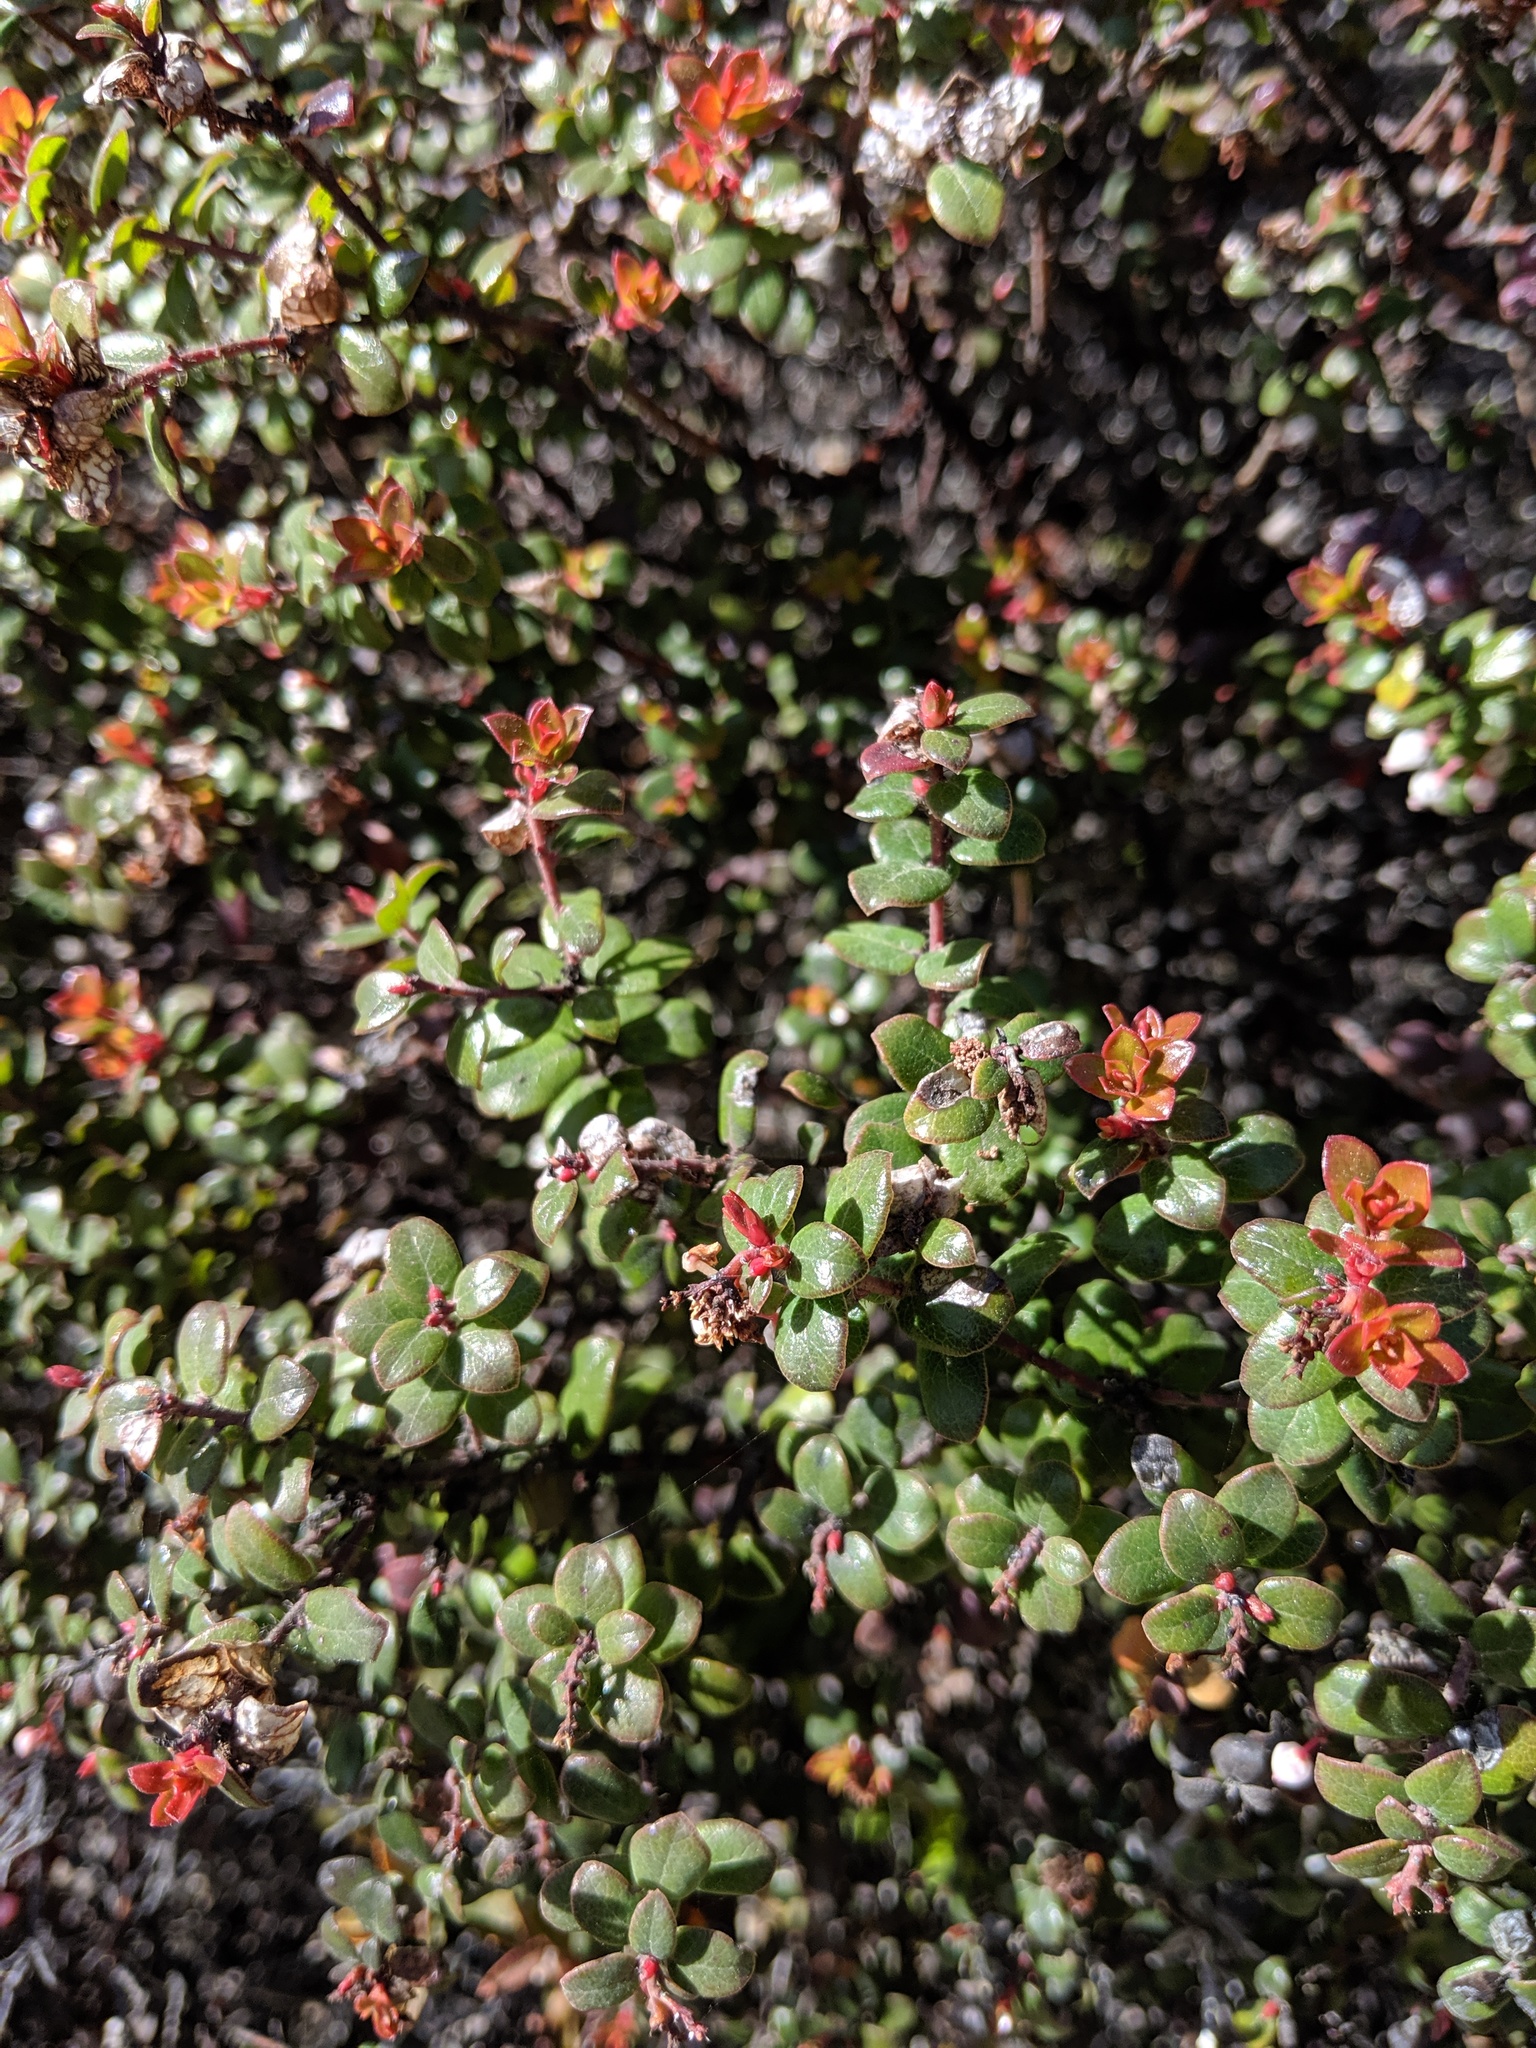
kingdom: Plantae
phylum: Tracheophyta
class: Magnoliopsida
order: Ericales
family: Ericaceae
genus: Arctostaphylos
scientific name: Arctostaphylos nummularia
